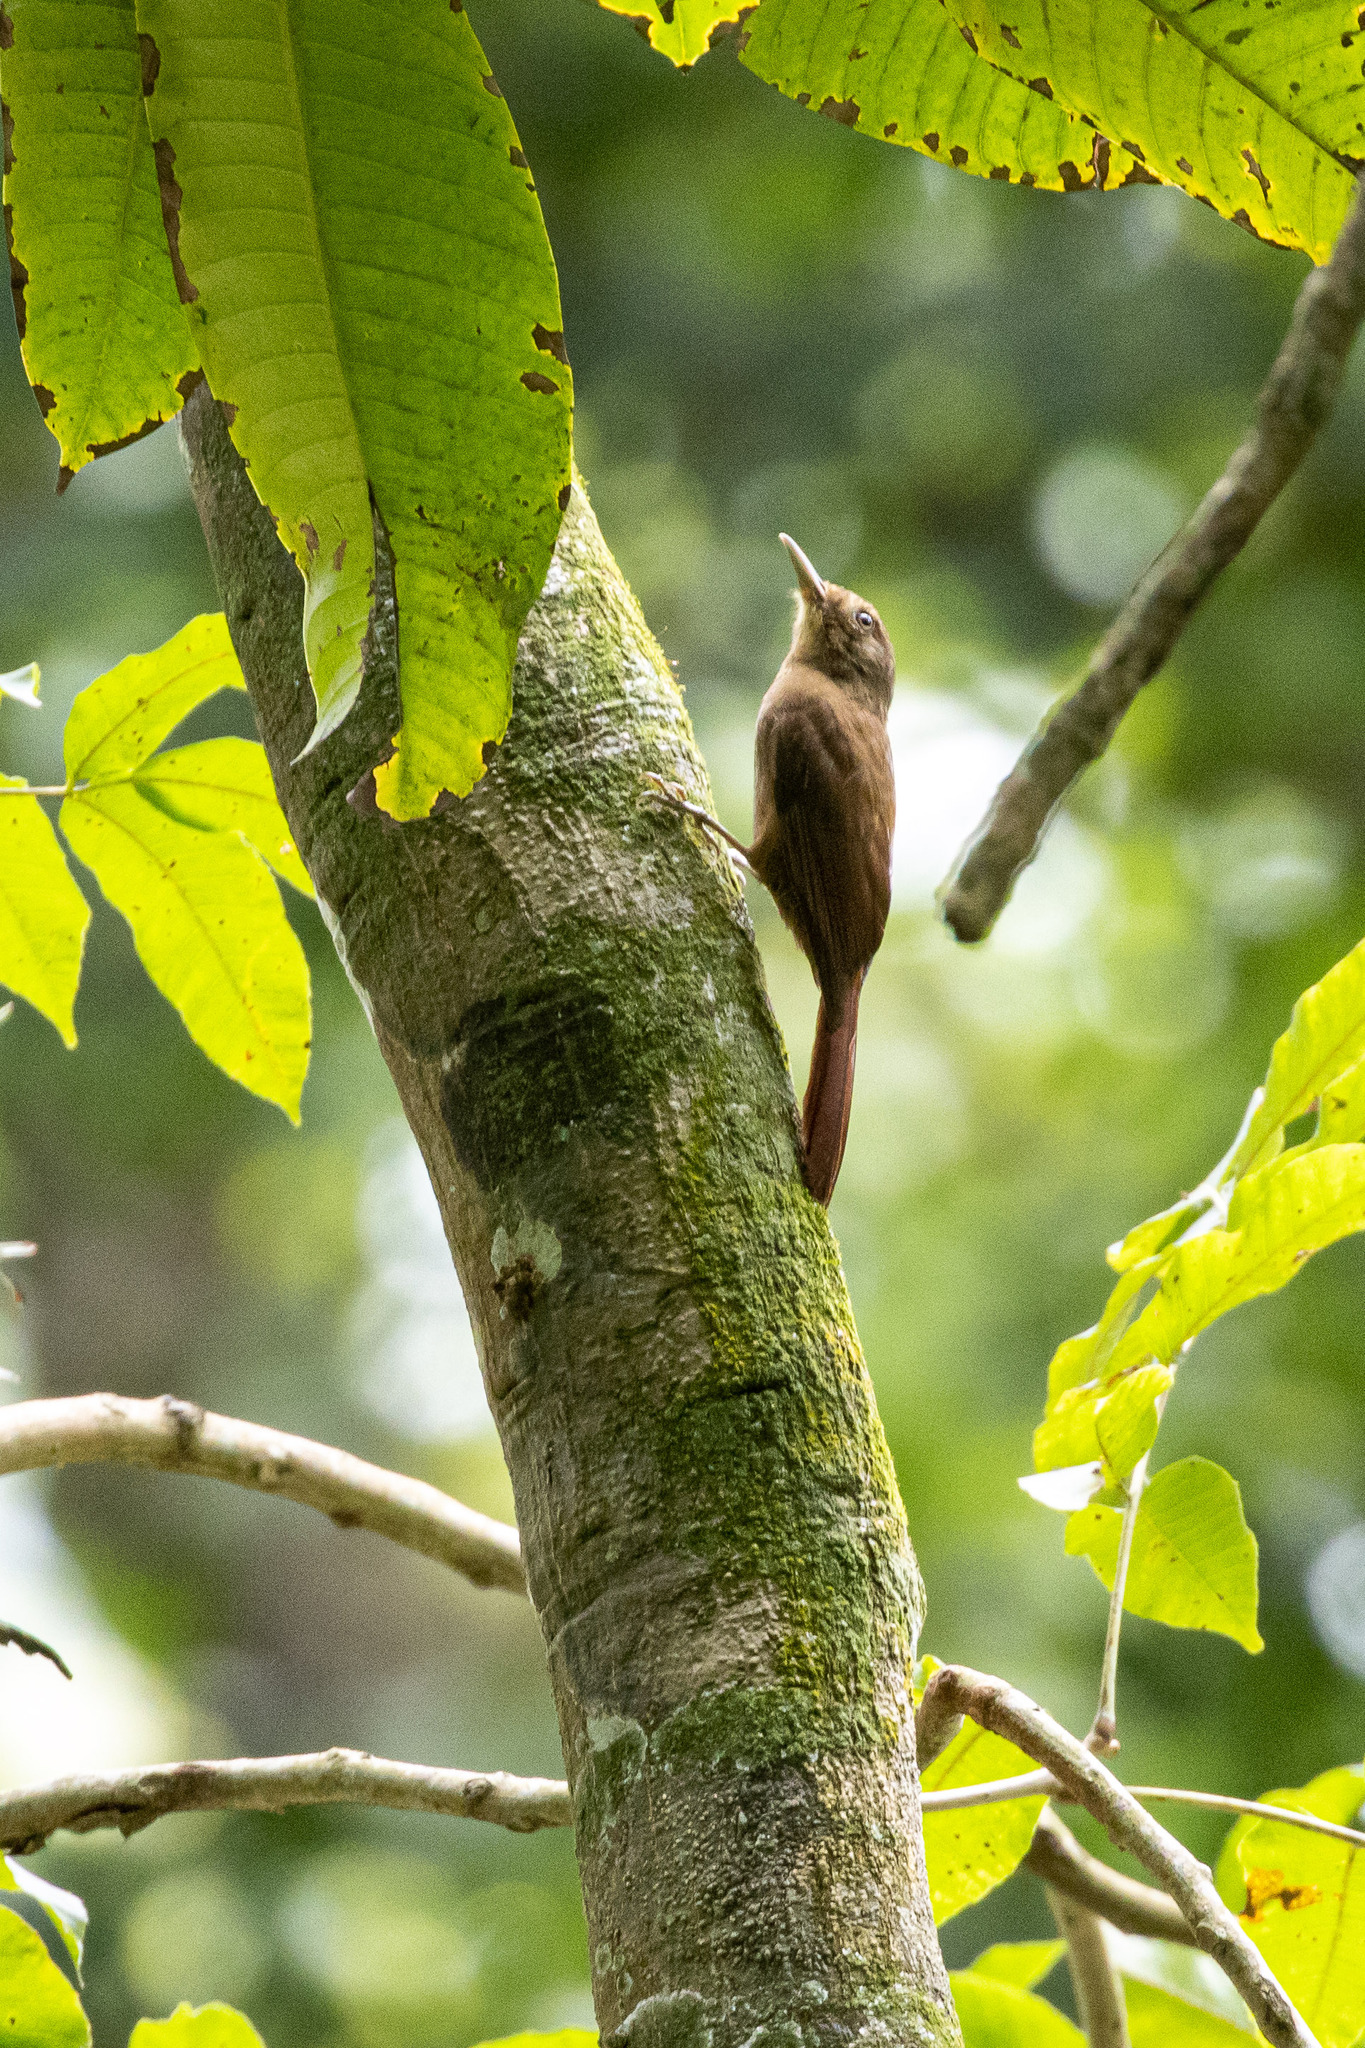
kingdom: Animalia
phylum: Chordata
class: Aves
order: Passeriformes
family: Furnariidae
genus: Dendrocincla
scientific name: Dendrocincla fuliginosa
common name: Plain-brown woodcreeper
